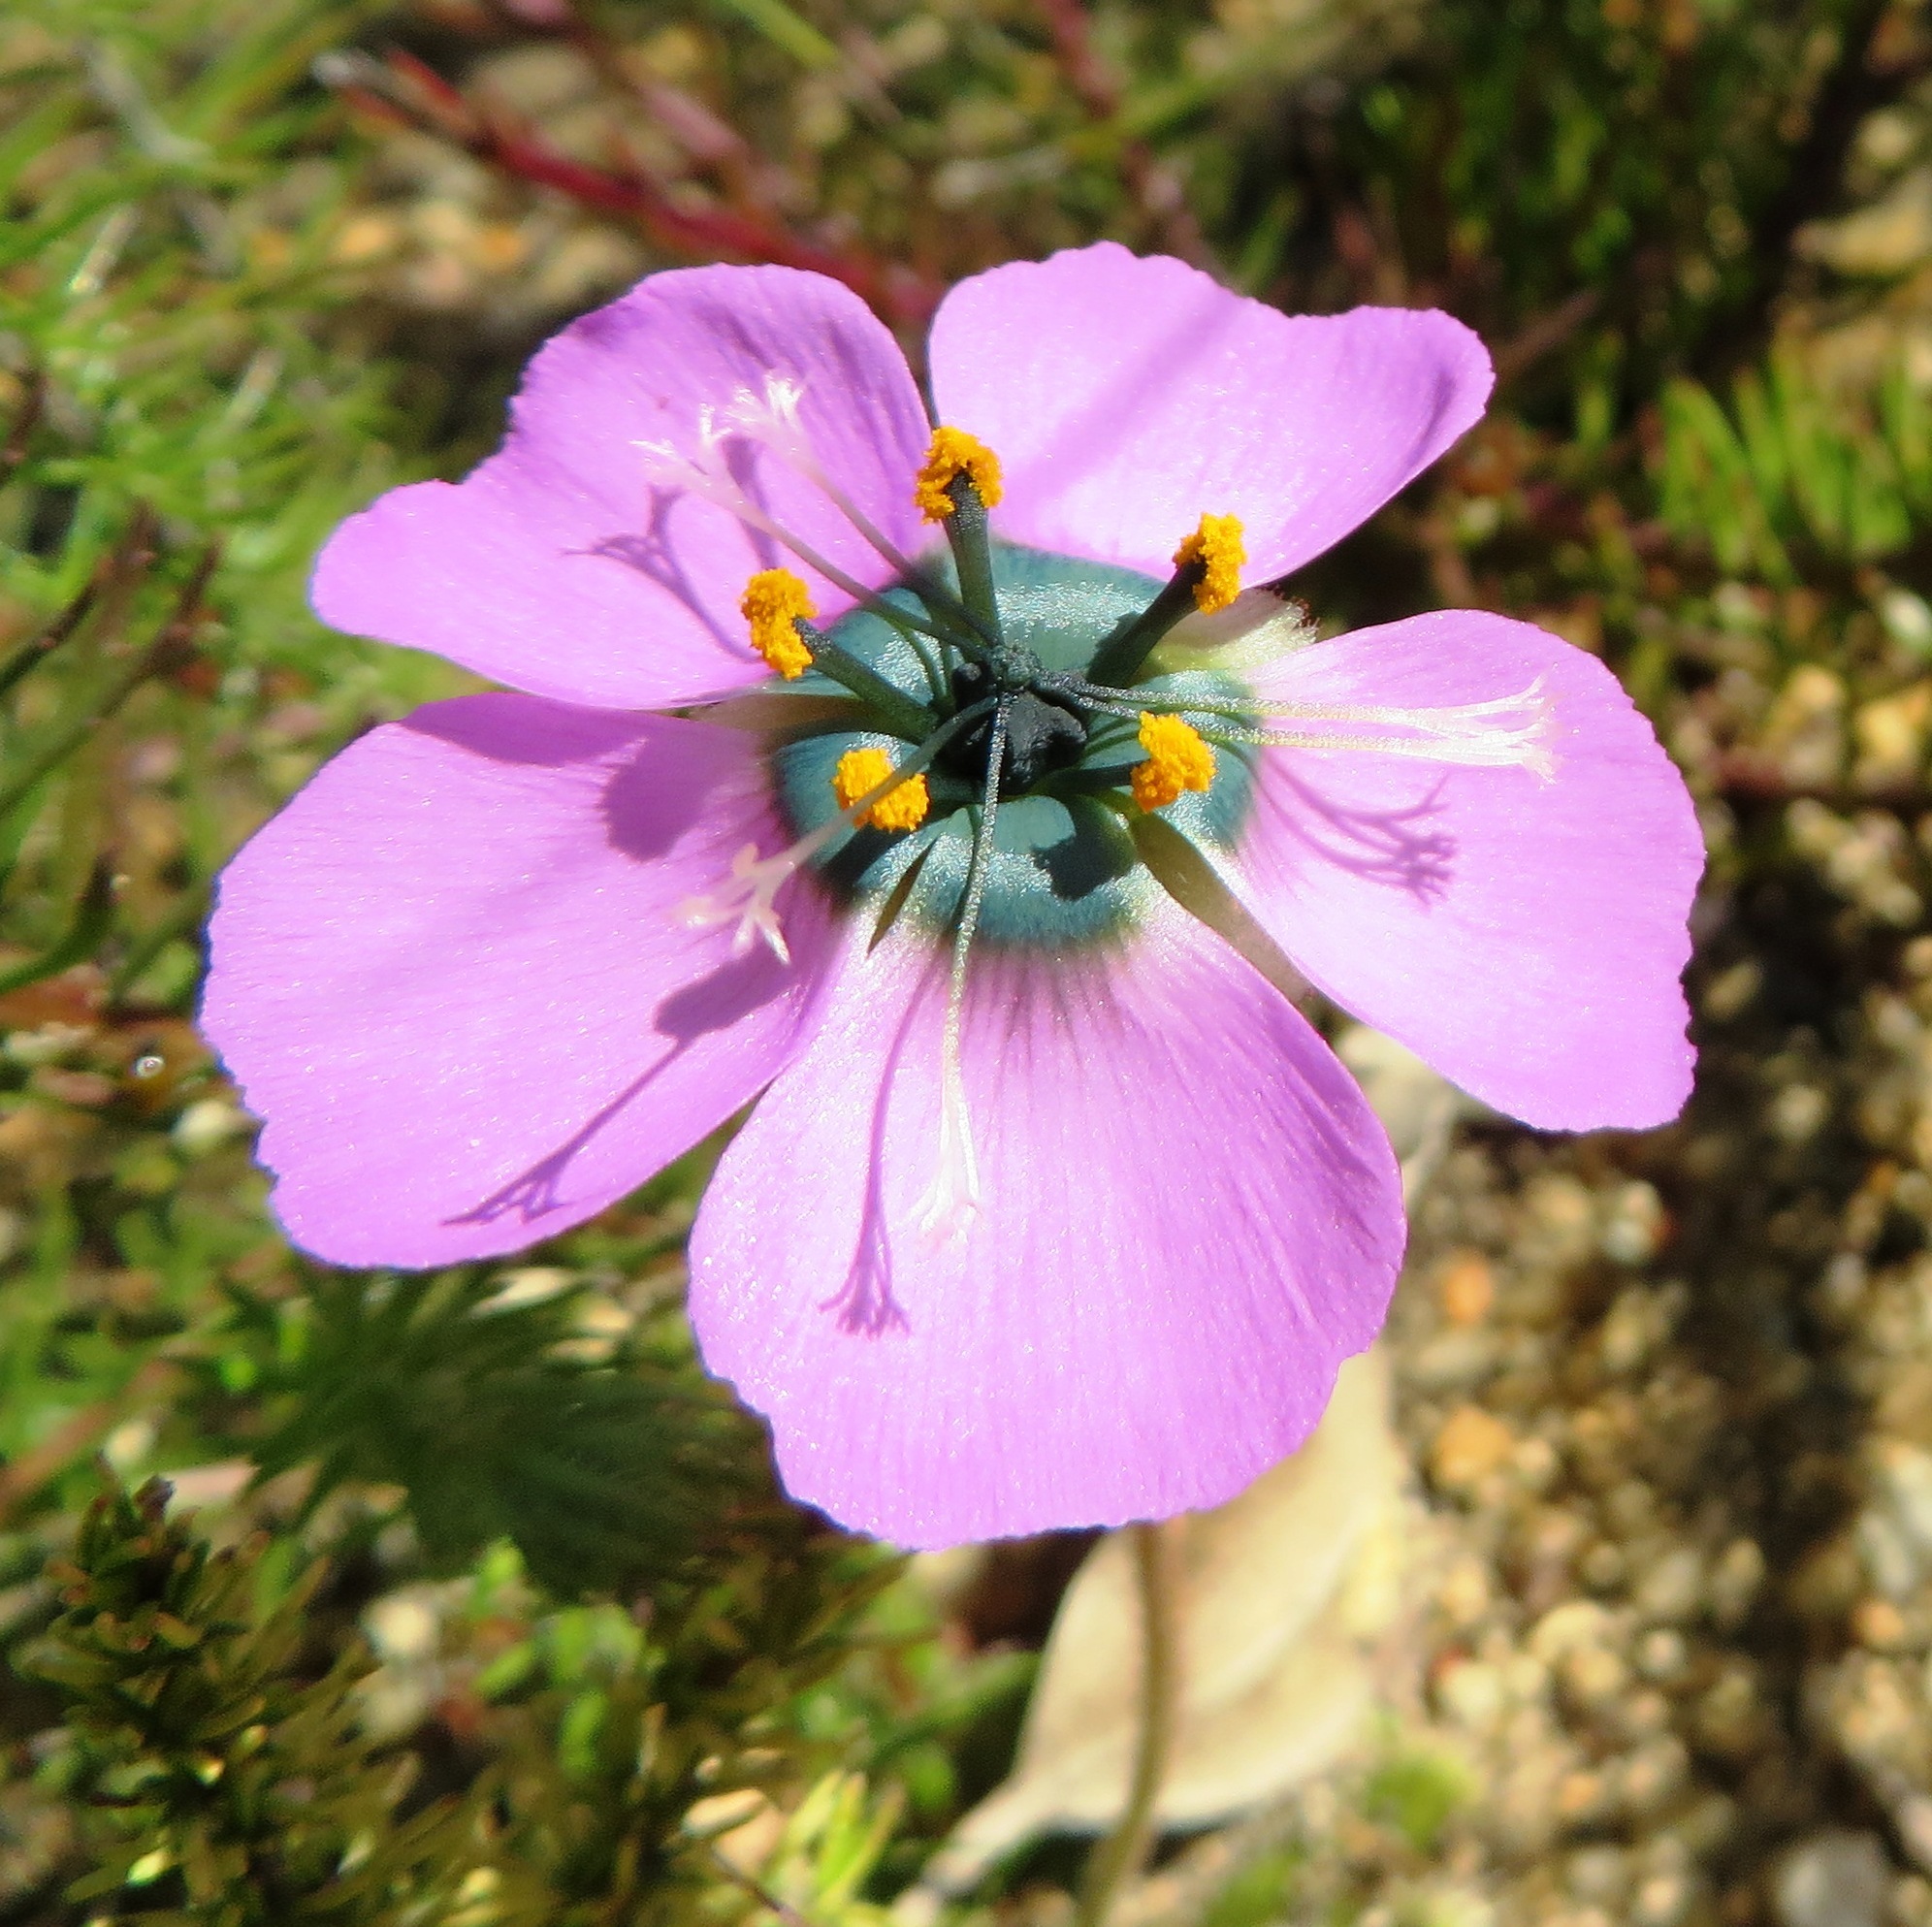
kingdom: Plantae
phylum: Tracheophyta
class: Magnoliopsida
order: Caryophyllales
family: Droseraceae
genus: Drosera
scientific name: Drosera pauciflora
